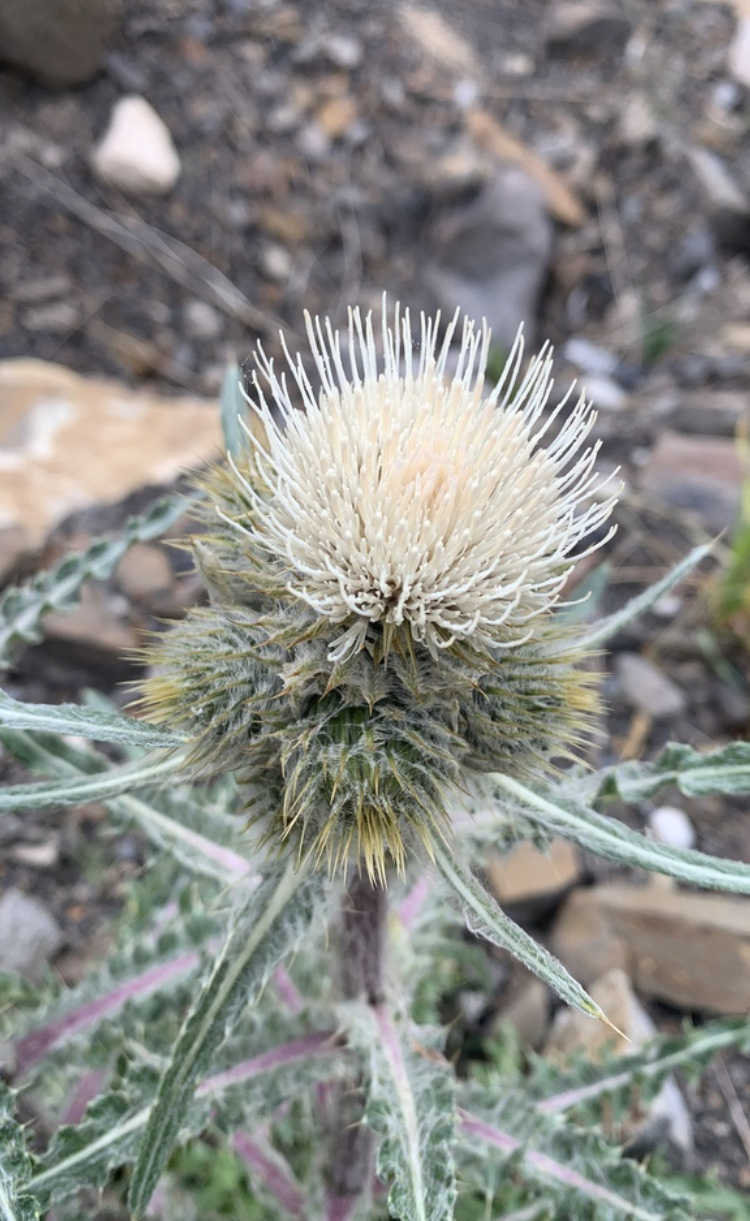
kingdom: Plantae
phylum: Tracheophyta
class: Magnoliopsida
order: Asterales
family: Asteraceae
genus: Cirsium
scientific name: Cirsium hookerianum
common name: Hooker's thistle
